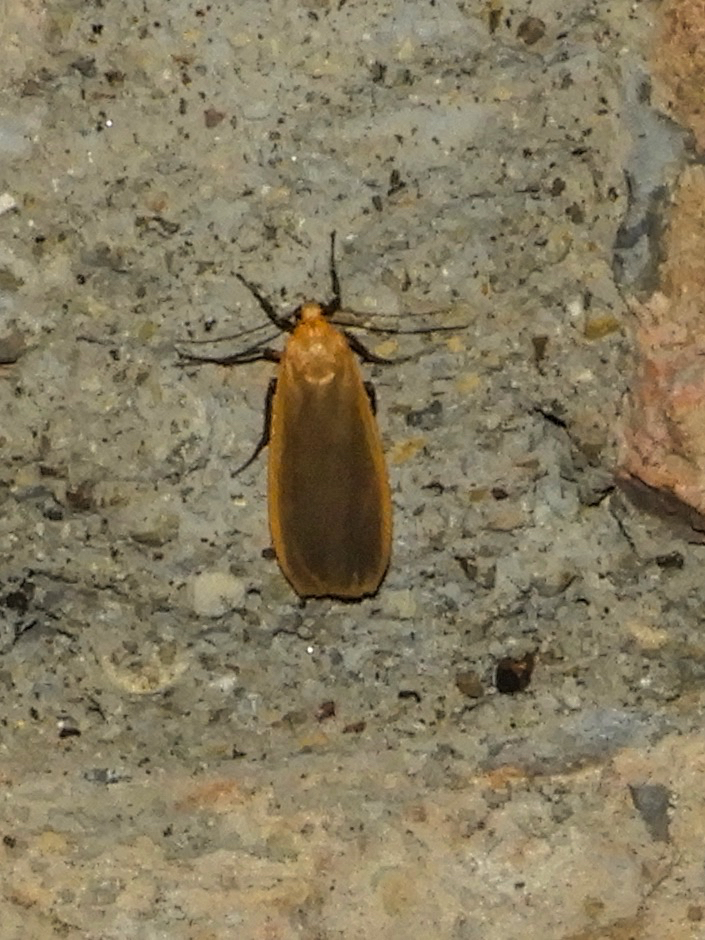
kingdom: Animalia
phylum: Arthropoda
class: Insecta
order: Lepidoptera
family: Erebidae
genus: Katha
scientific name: Katha depressa
